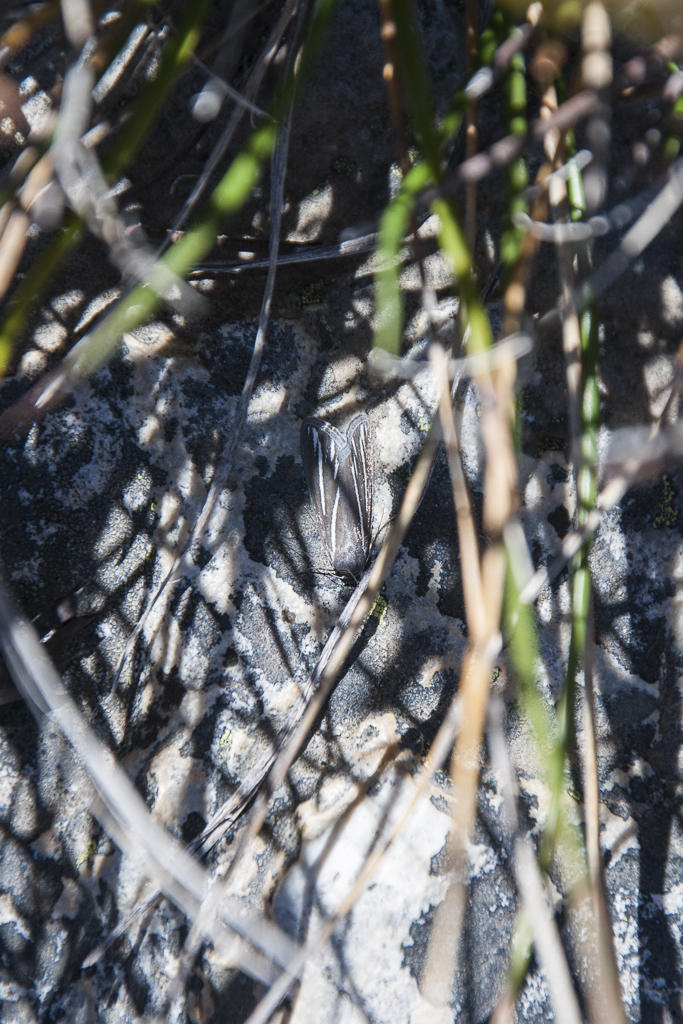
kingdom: Animalia
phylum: Arthropoda
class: Insecta
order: Lepidoptera
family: Geometridae
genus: Pseudomaenas
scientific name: Pseudomaenas alcidata
